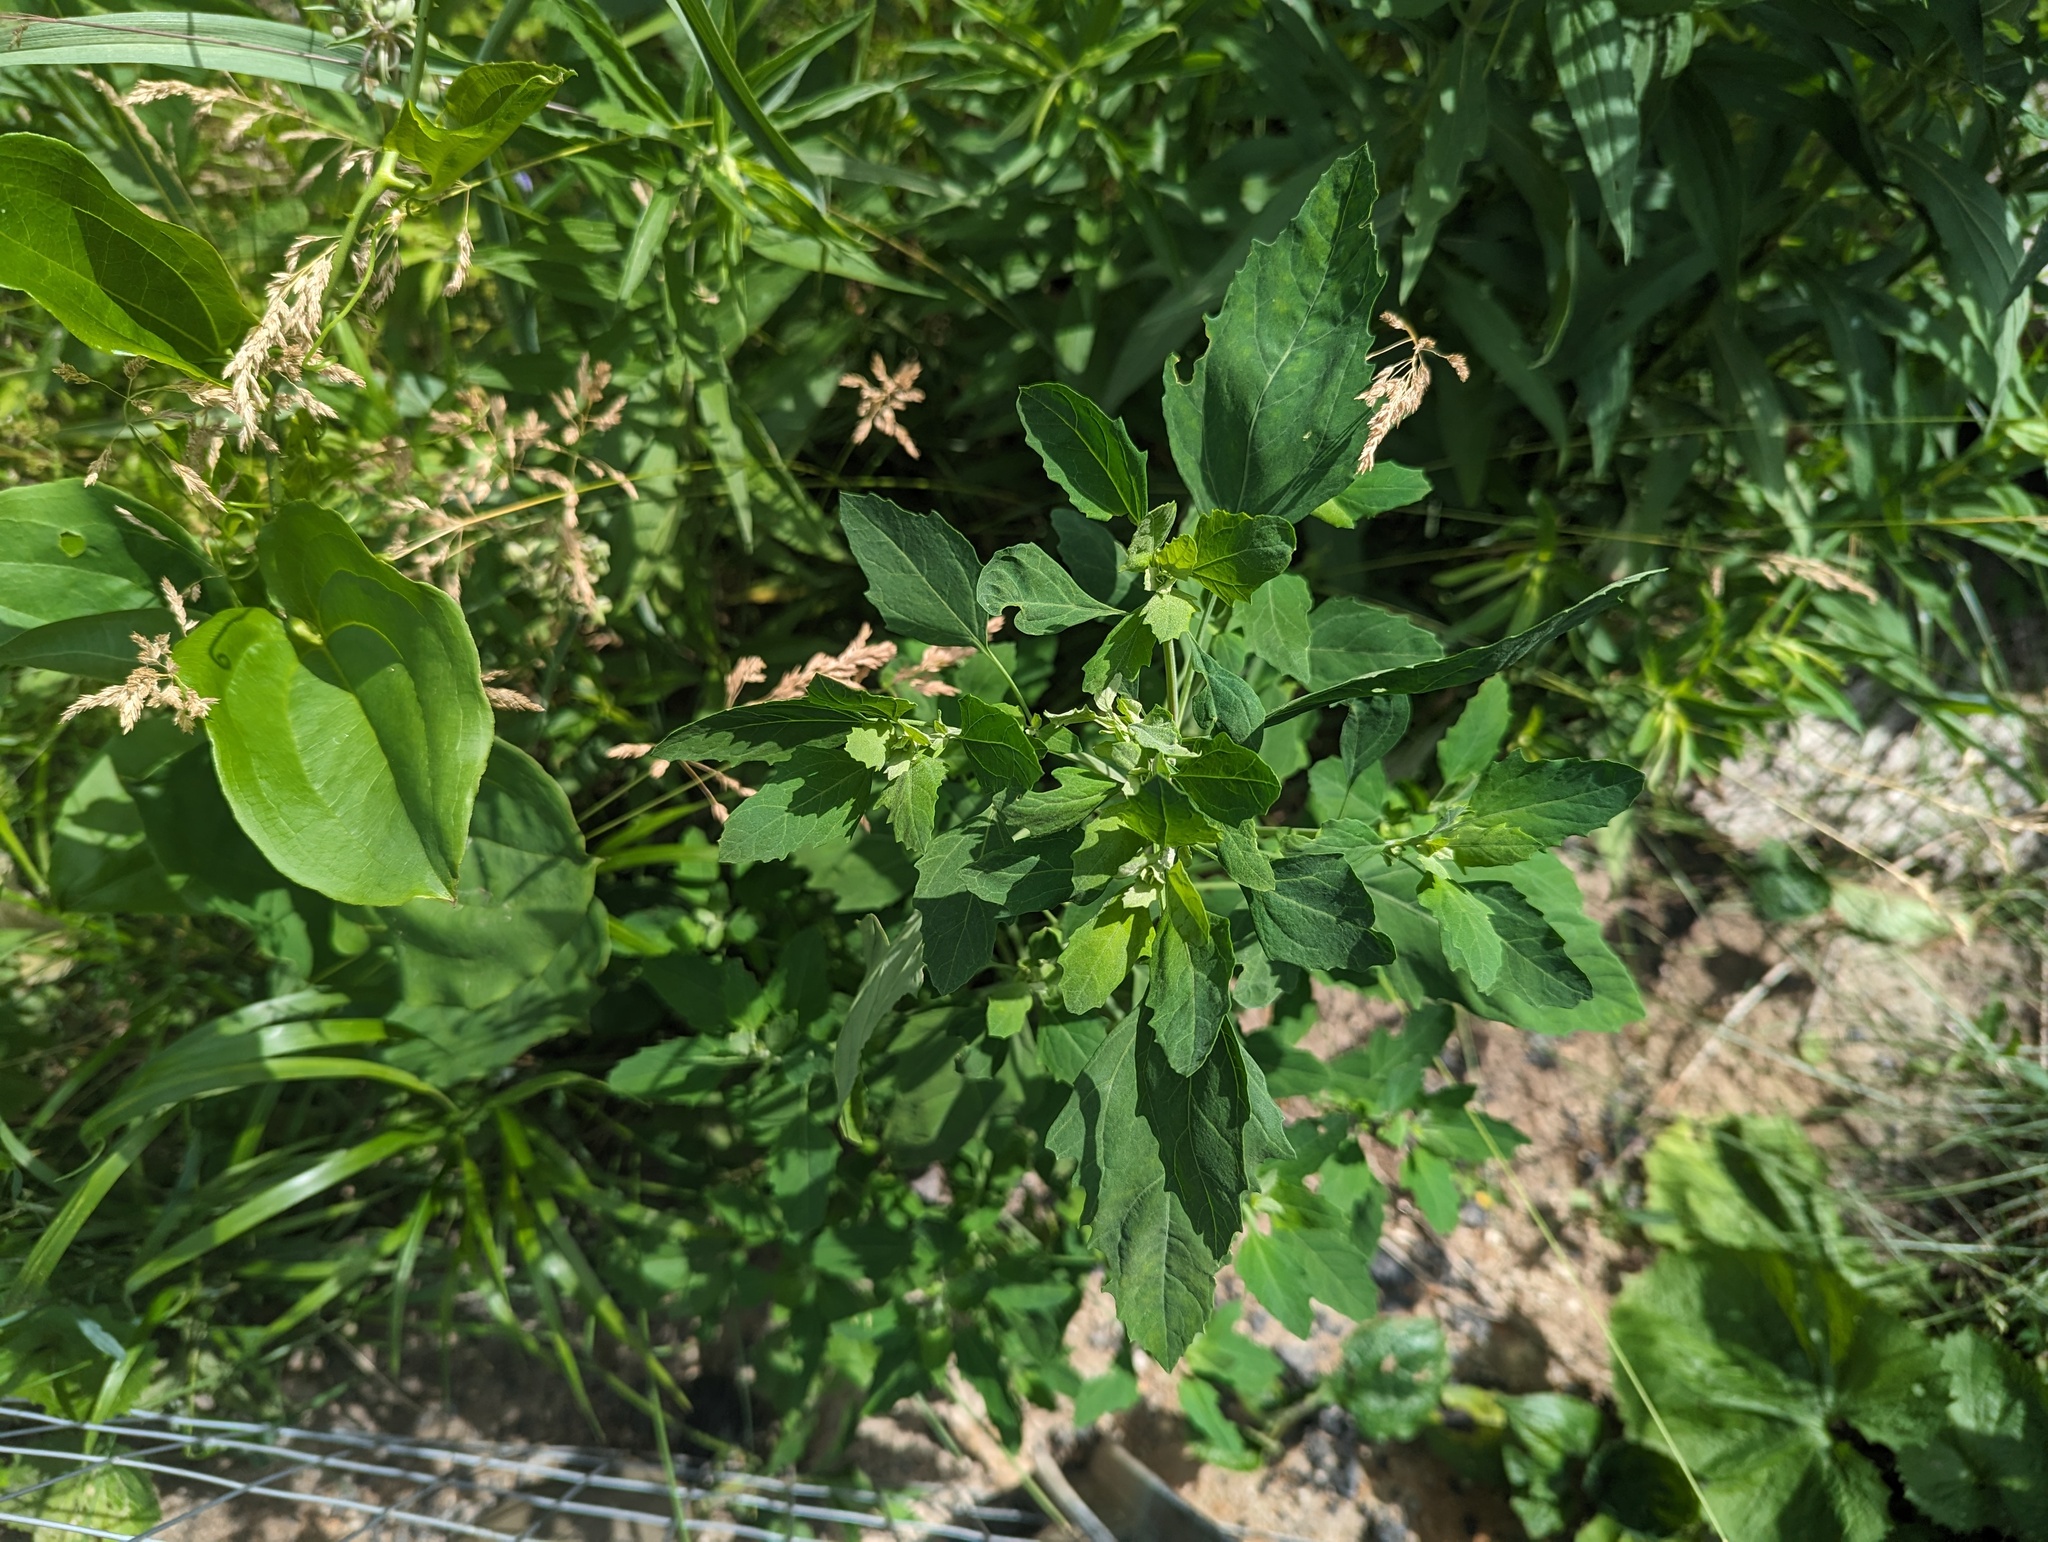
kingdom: Plantae
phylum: Tracheophyta
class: Magnoliopsida
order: Caryophyllales
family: Amaranthaceae
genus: Chenopodium
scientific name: Chenopodium album
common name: Fat-hen
